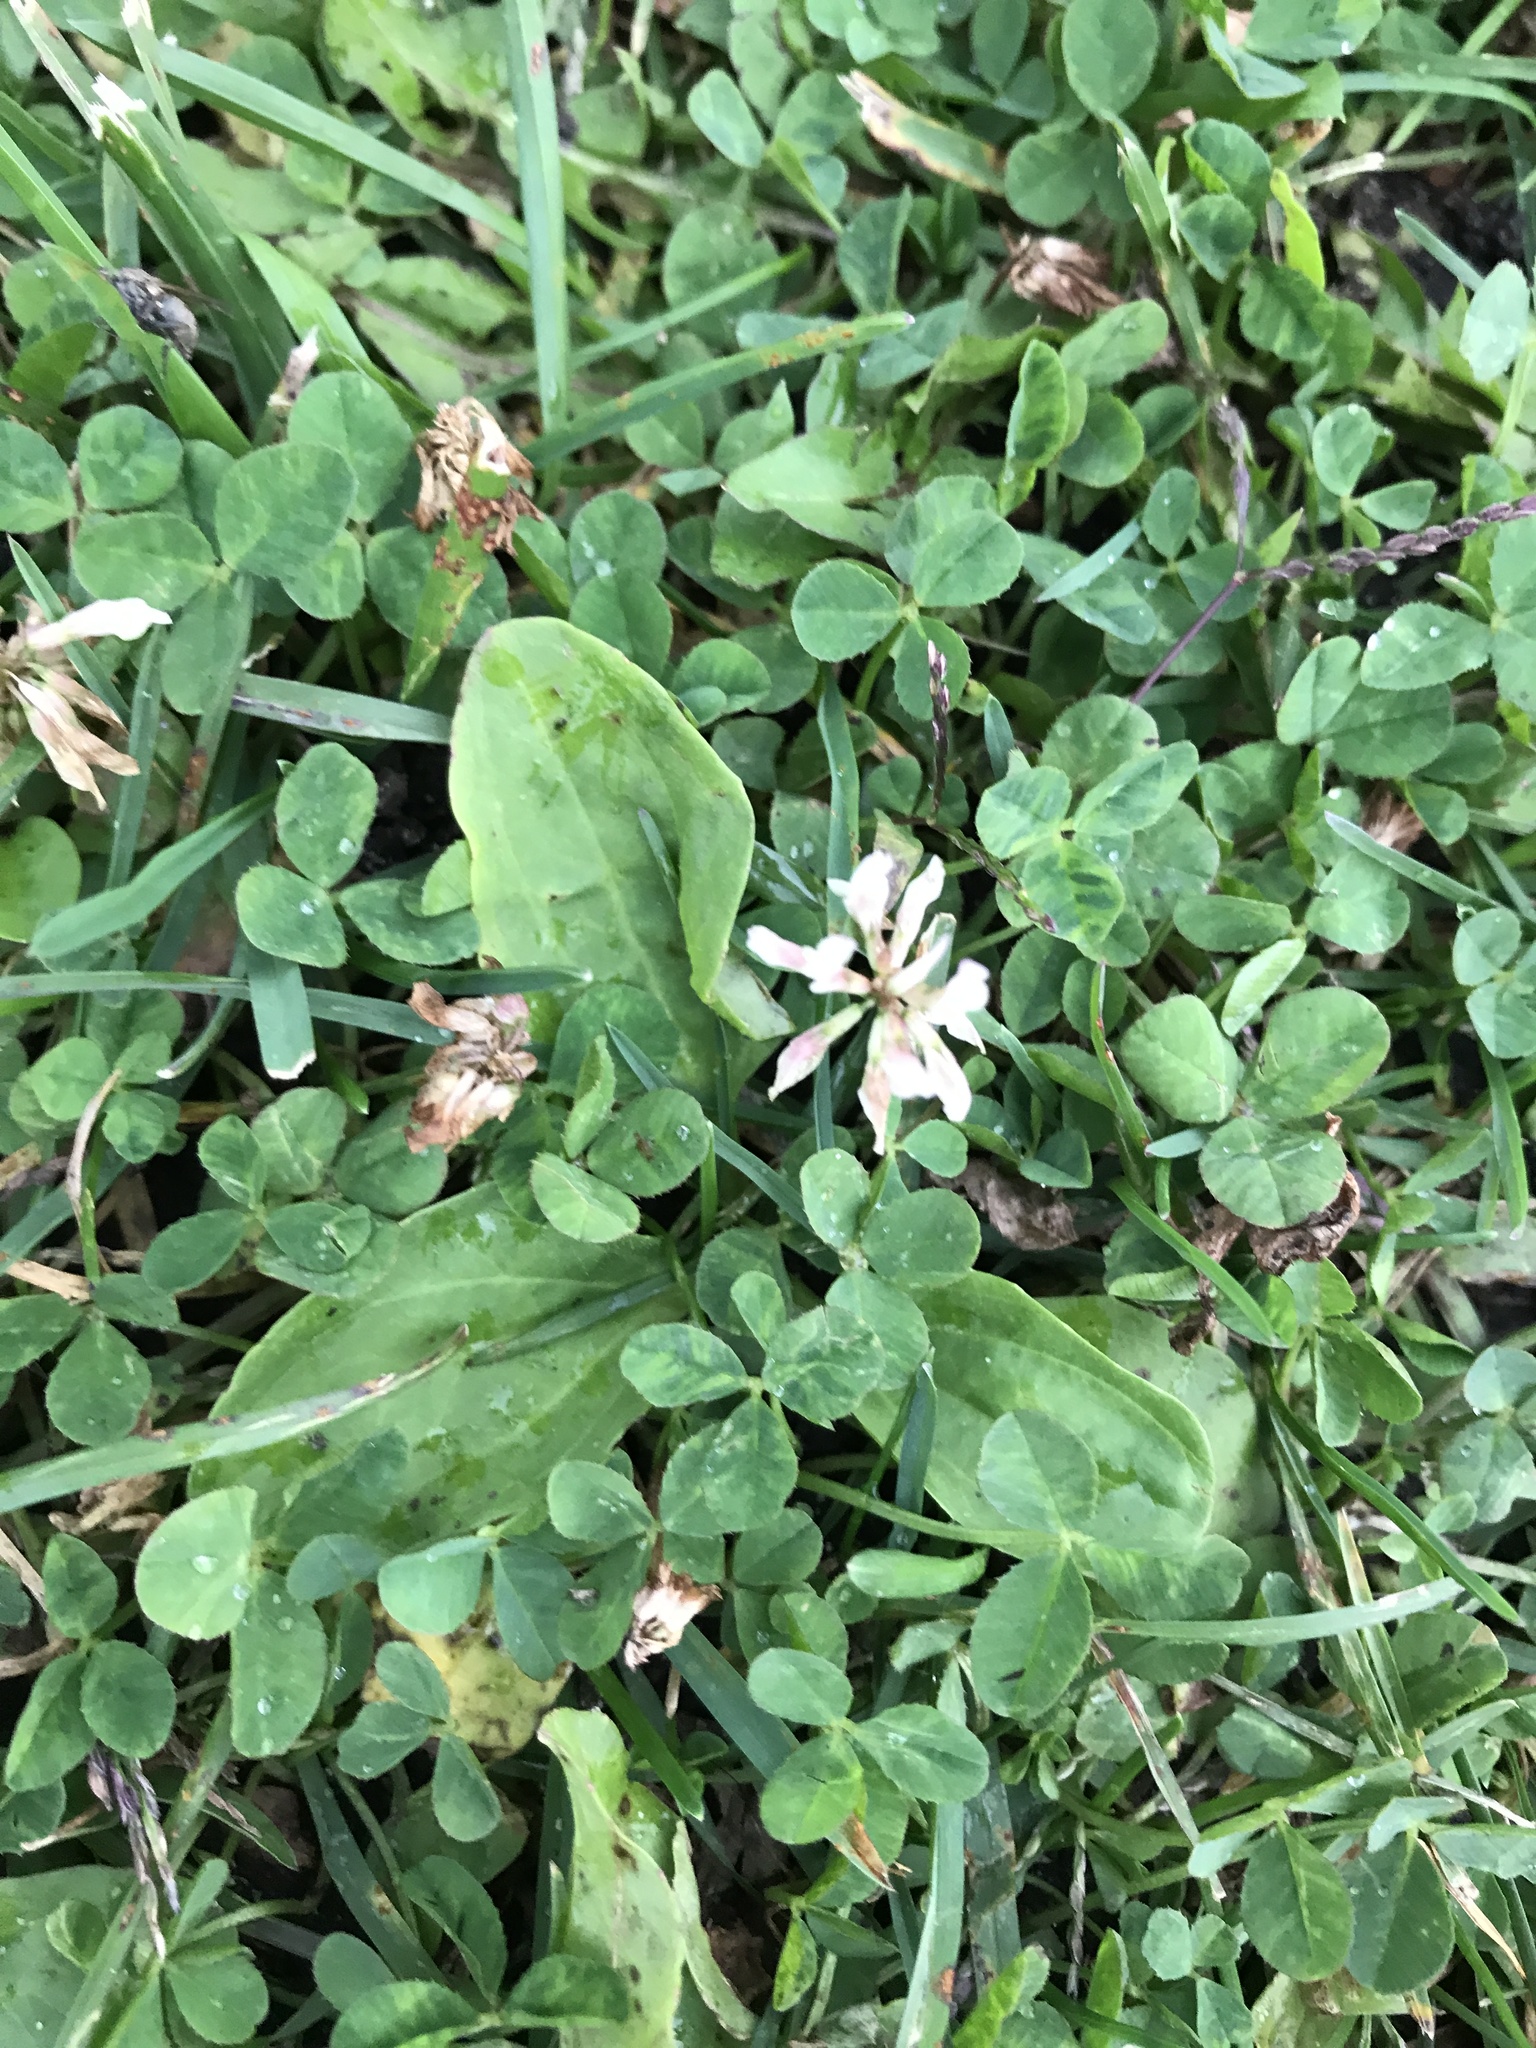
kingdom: Plantae
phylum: Tracheophyta
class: Magnoliopsida
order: Fabales
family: Fabaceae
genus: Trifolium
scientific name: Trifolium repens
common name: White clover
